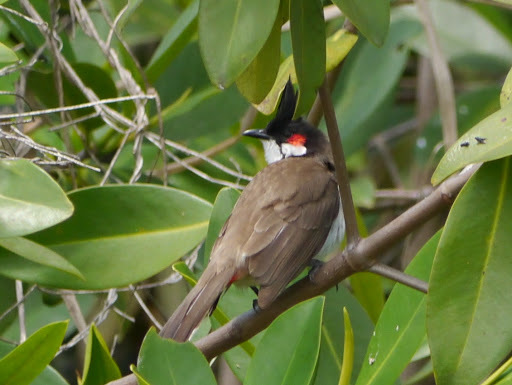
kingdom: Animalia
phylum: Chordata
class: Aves
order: Passeriformes
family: Pycnonotidae
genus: Pycnonotus
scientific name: Pycnonotus jocosus
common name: Red-whiskered bulbul
